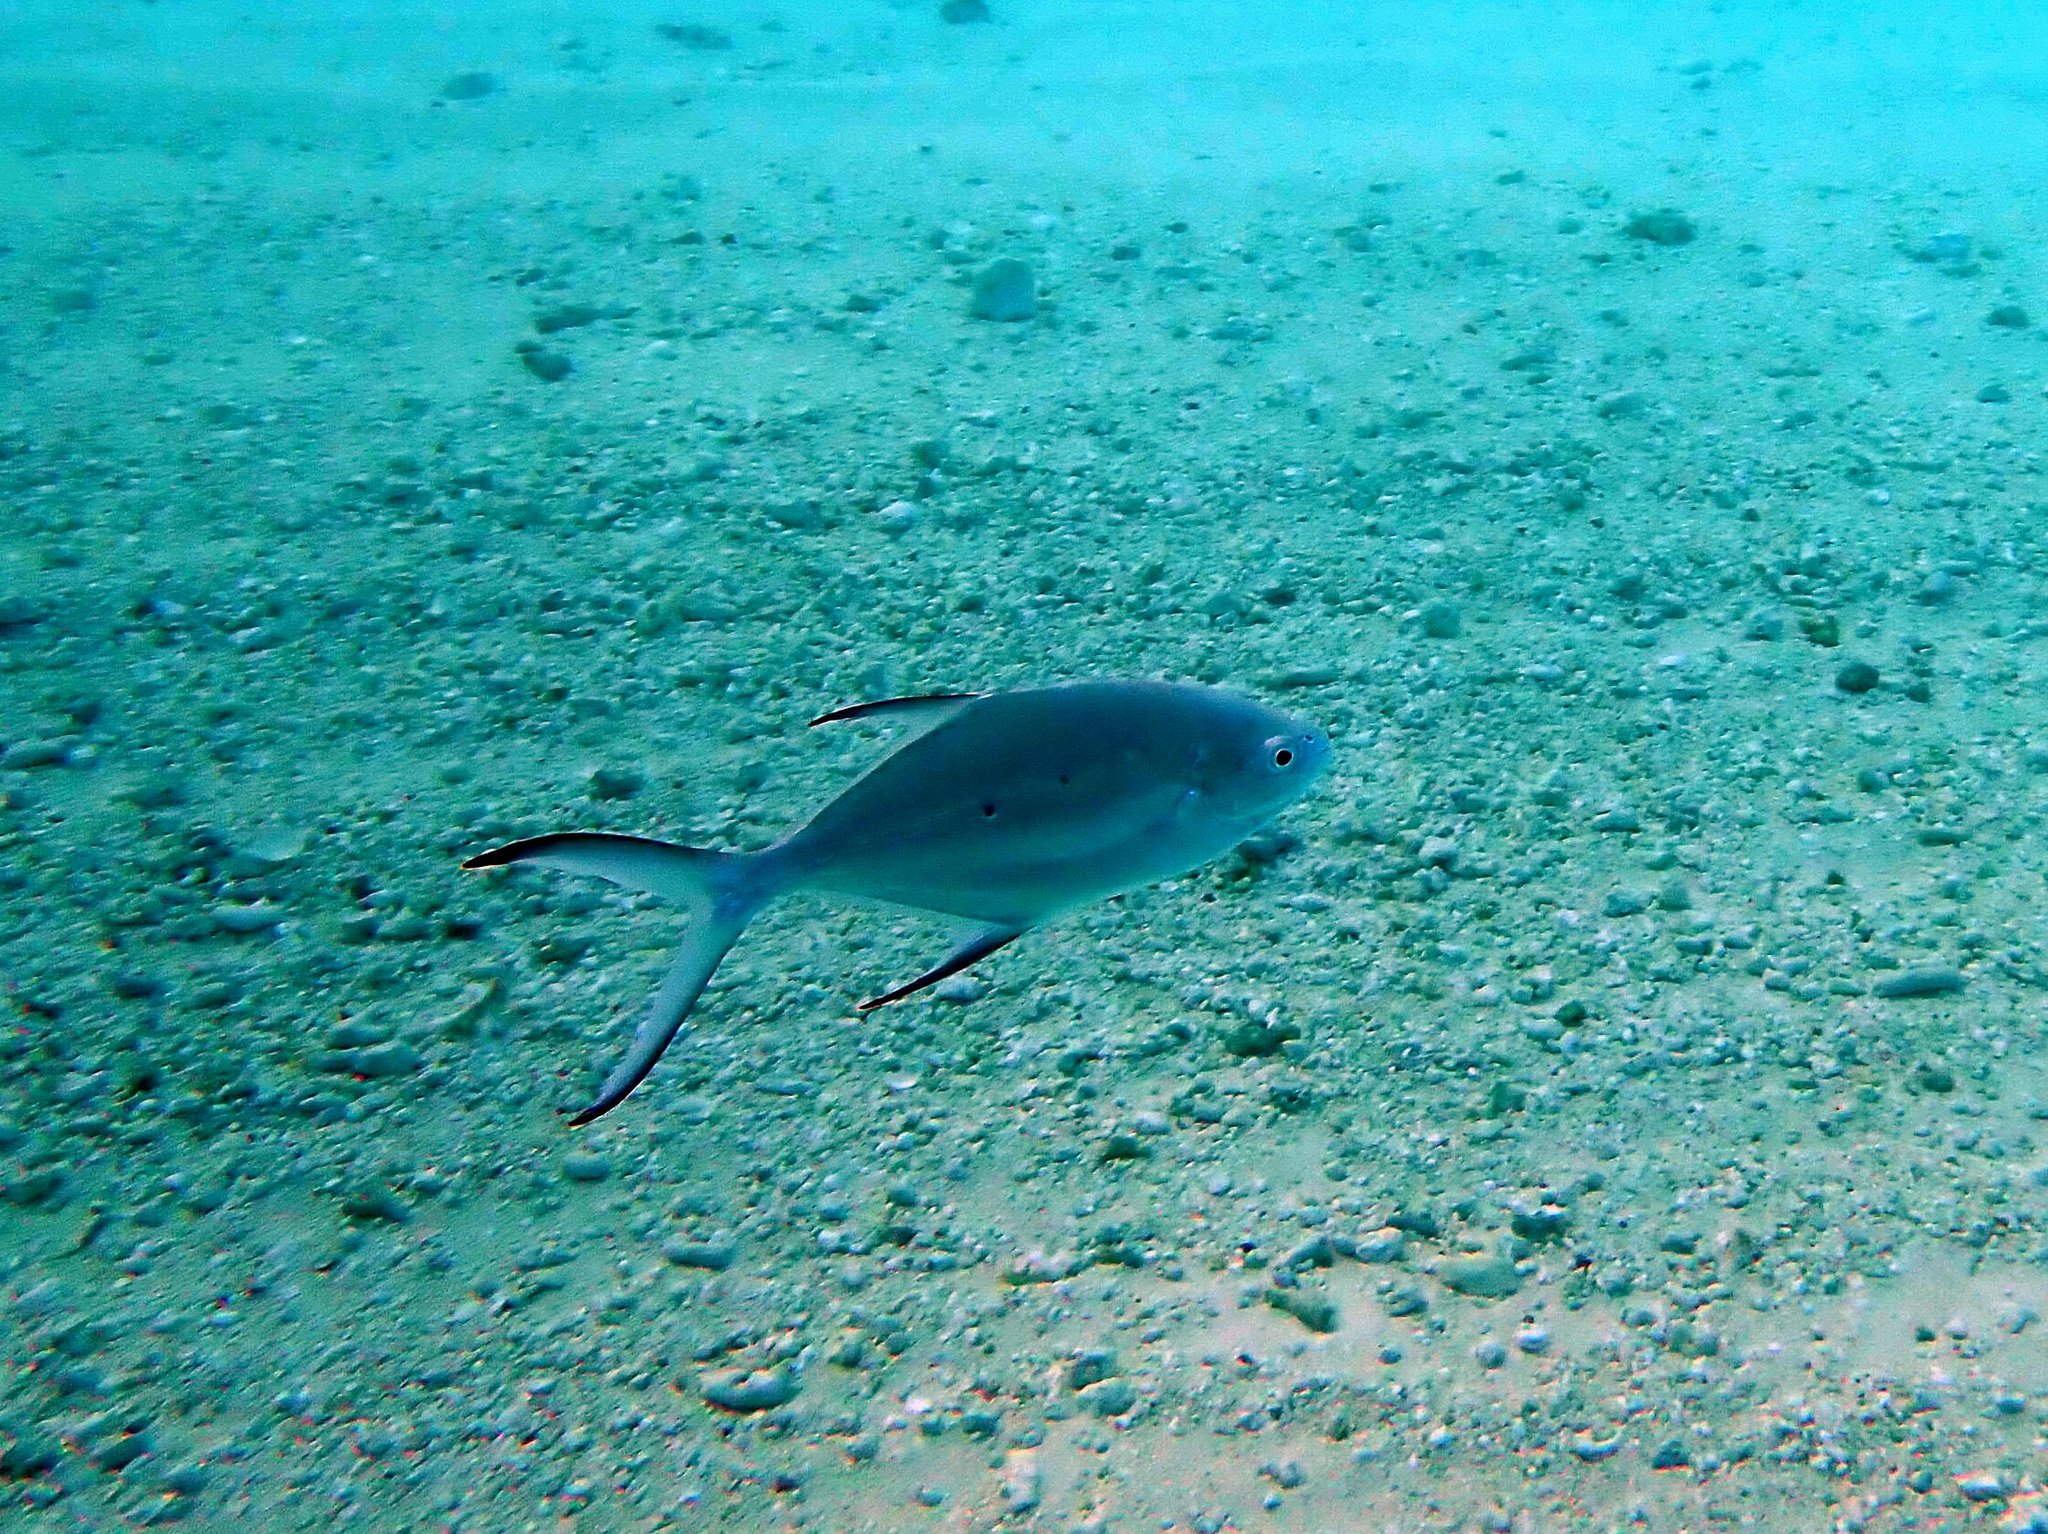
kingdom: Animalia
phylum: Chordata
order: Perciformes
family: Carangidae
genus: Trachinotus
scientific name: Trachinotus baillonii
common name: Smallspotted dart
